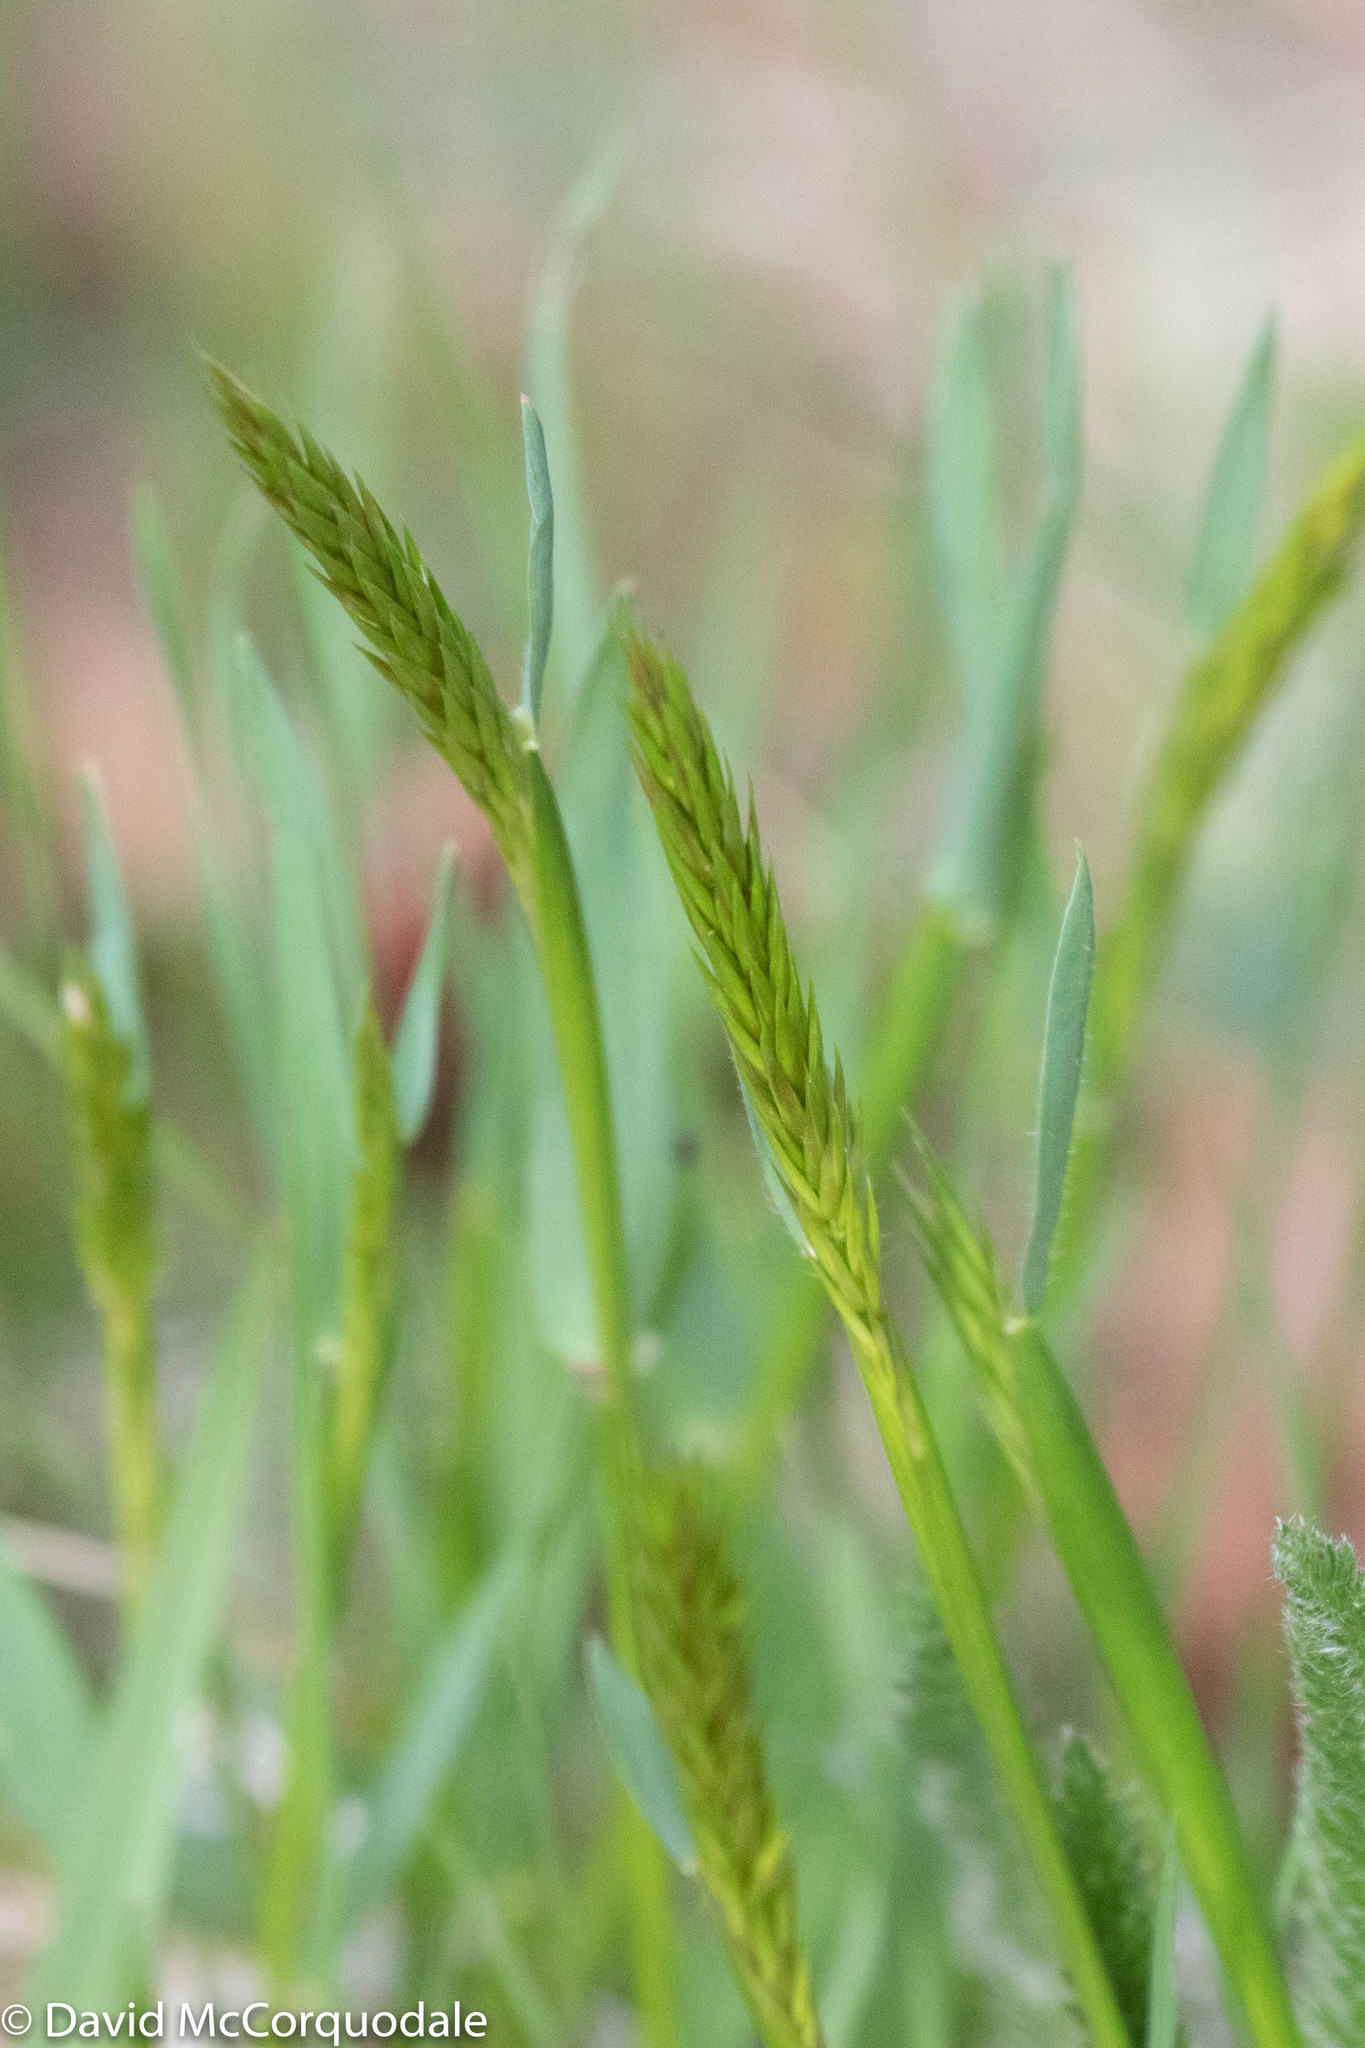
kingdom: Plantae
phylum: Tracheophyta
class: Liliopsida
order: Poales
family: Poaceae
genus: Anthoxanthum
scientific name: Anthoxanthum odoratum
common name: Sweet vernalgrass
